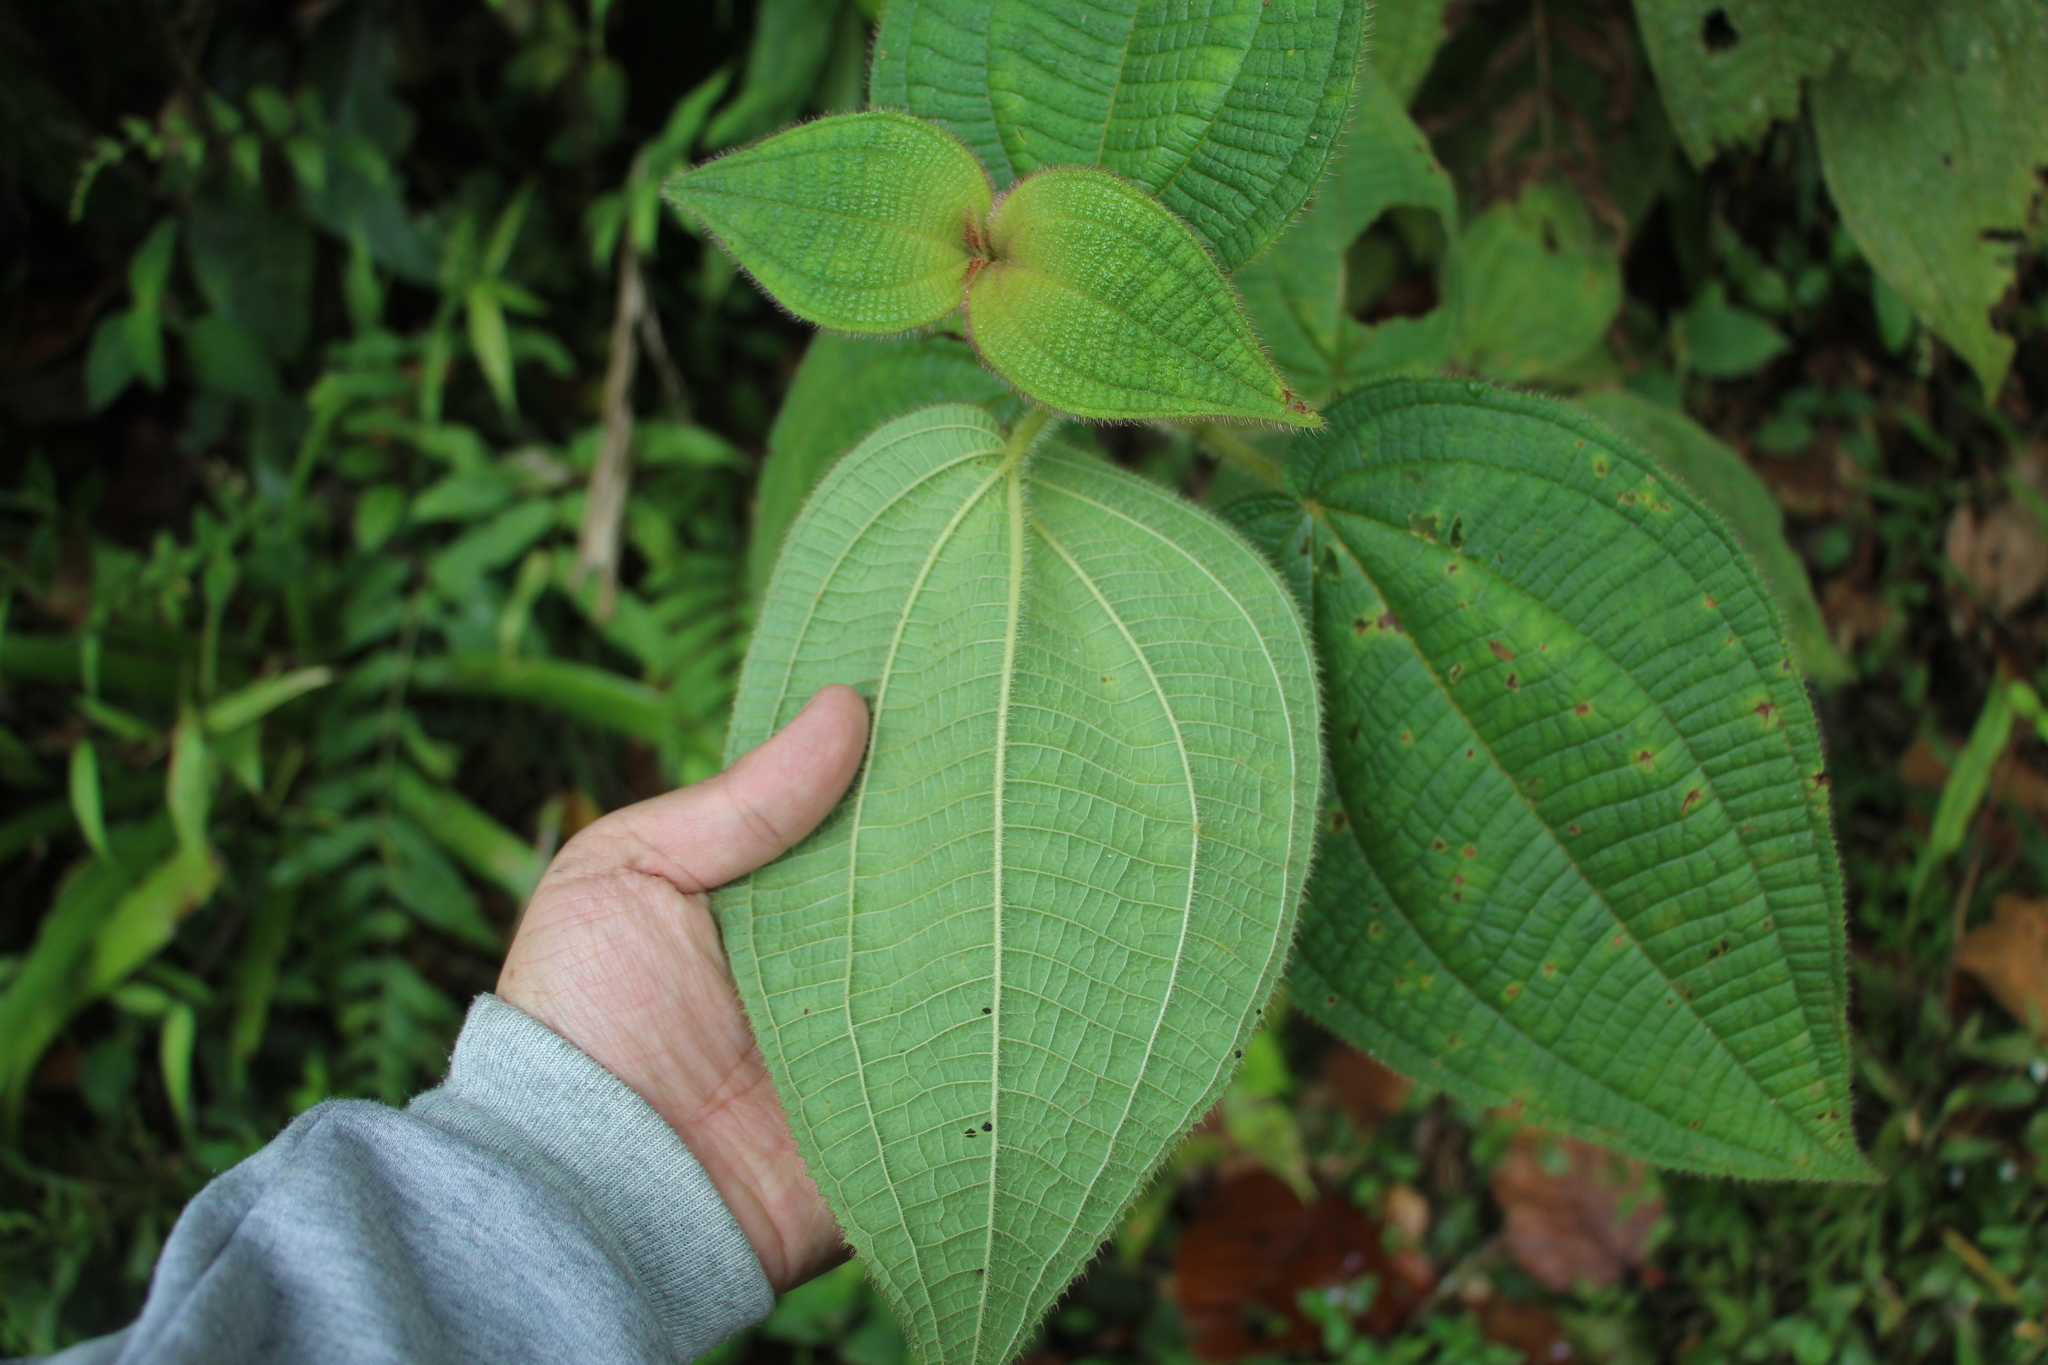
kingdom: Plantae
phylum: Tracheophyta
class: Magnoliopsida
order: Myrtales
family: Melastomataceae
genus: Miconia
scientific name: Miconia domociliata
